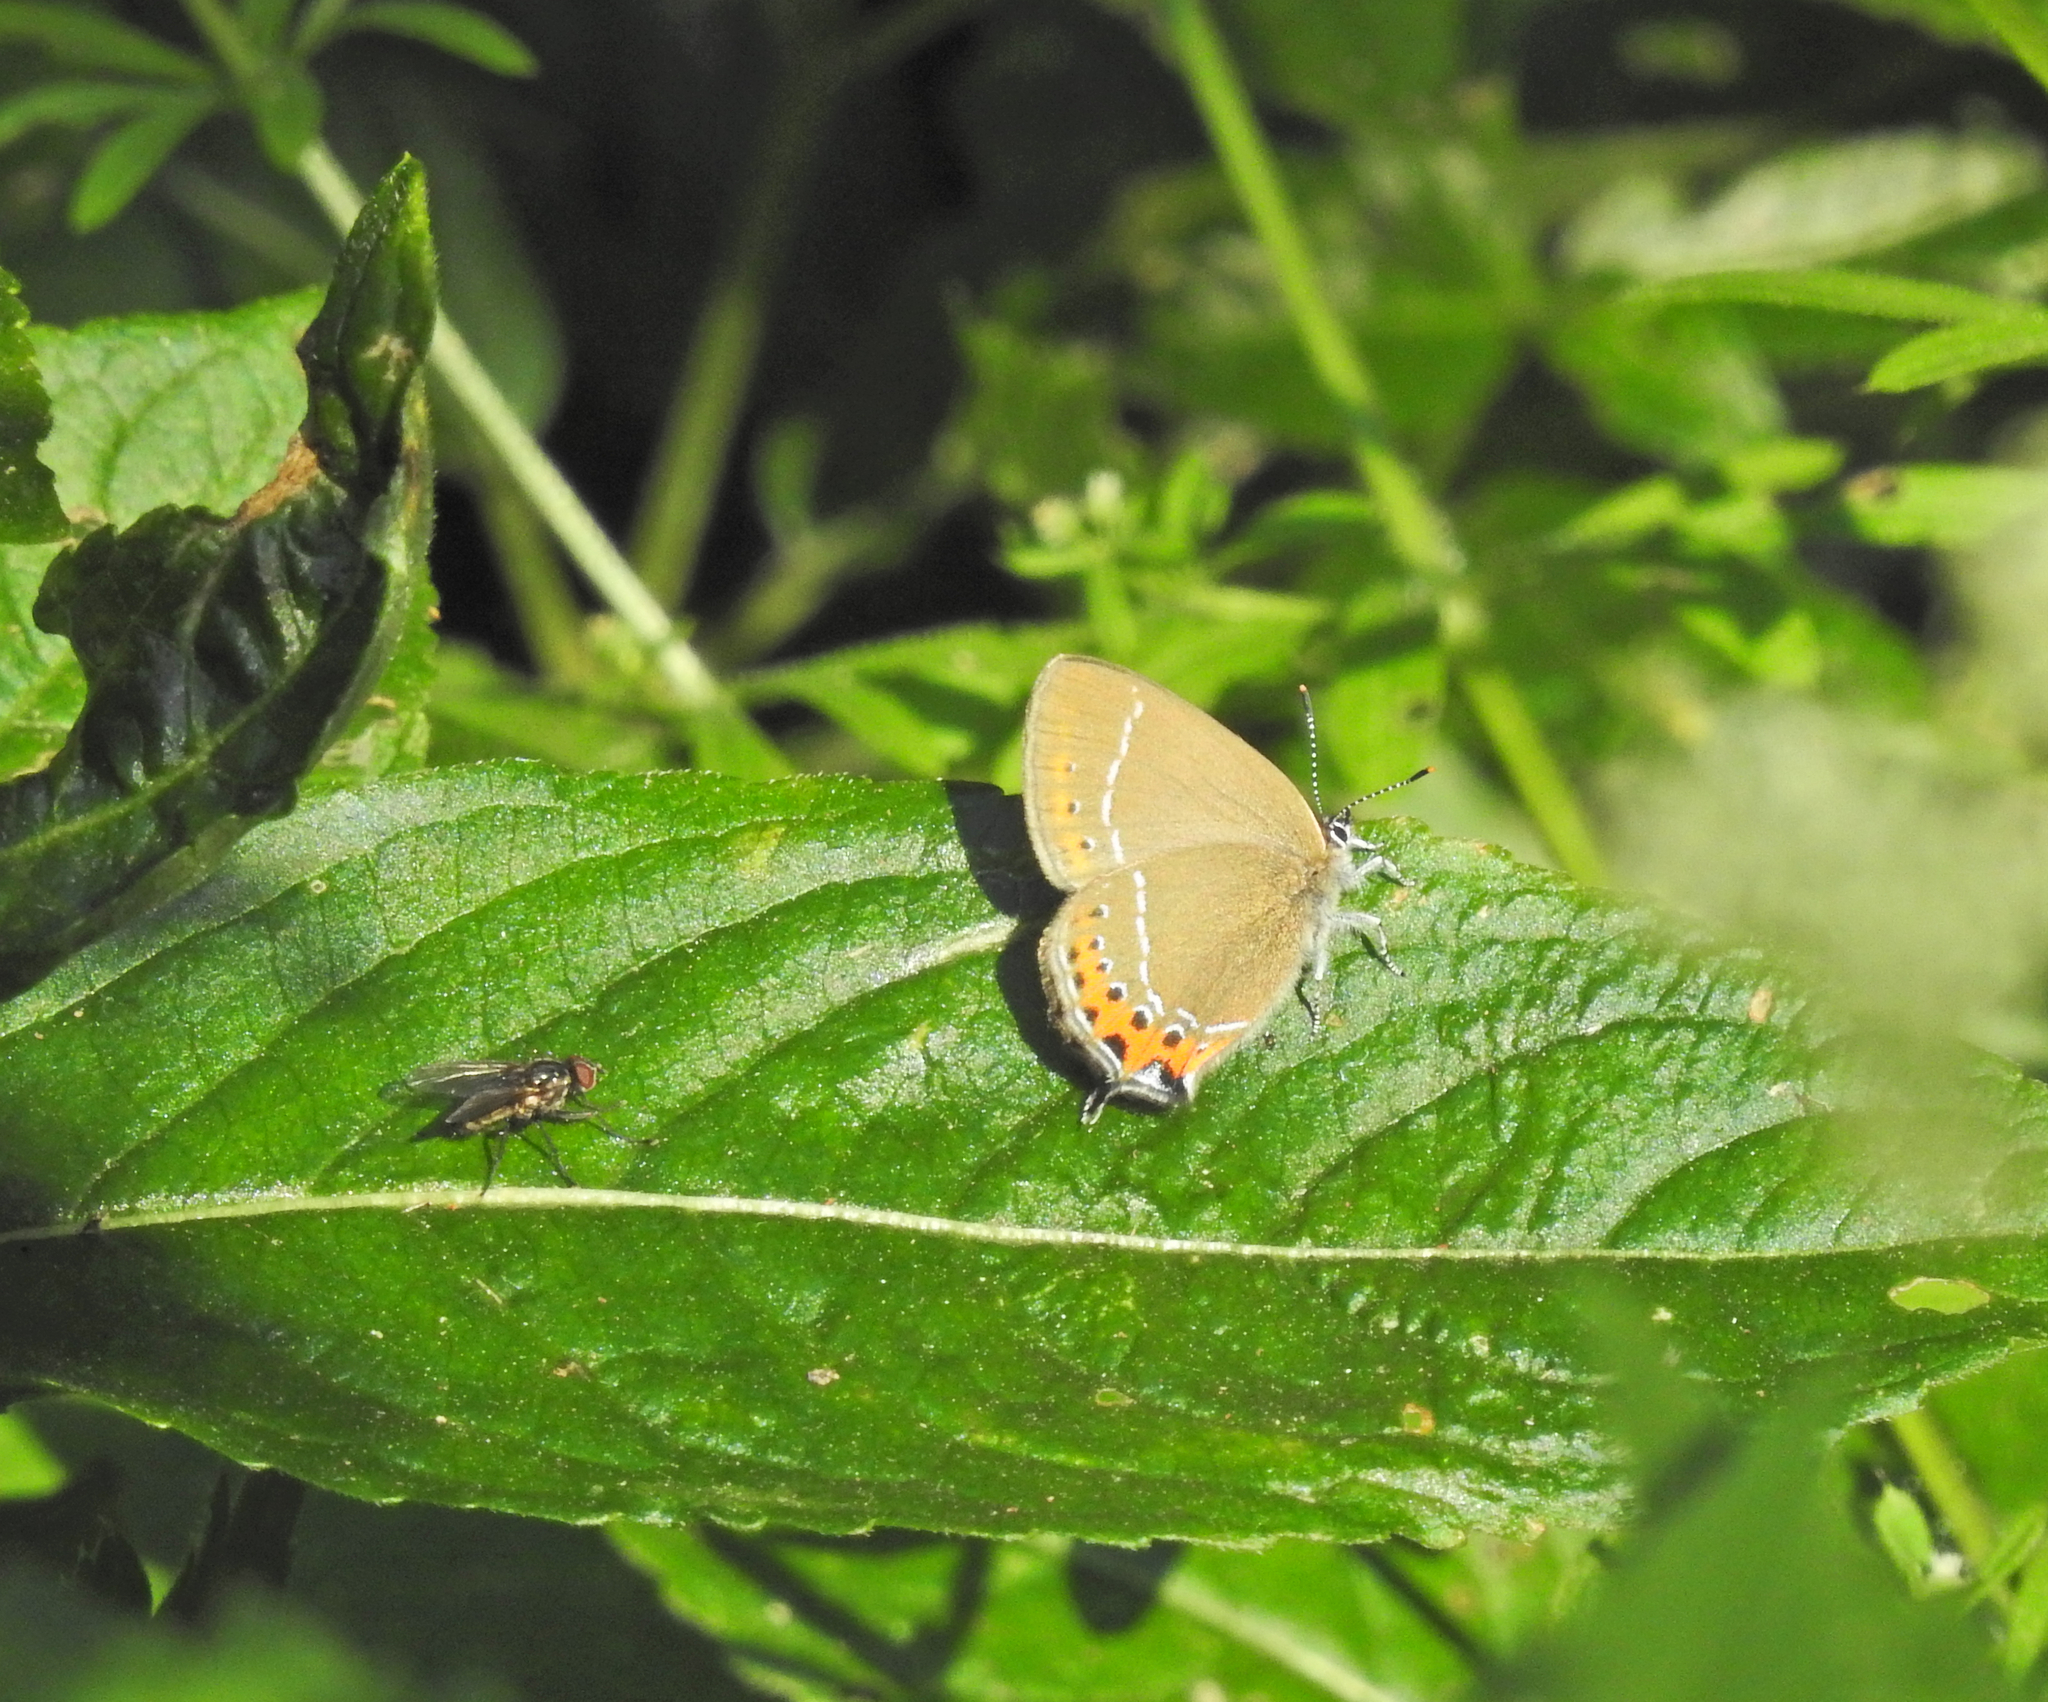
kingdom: Animalia
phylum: Arthropoda
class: Insecta
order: Lepidoptera
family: Lycaenidae
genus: Fixsenia
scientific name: Fixsenia pruni
